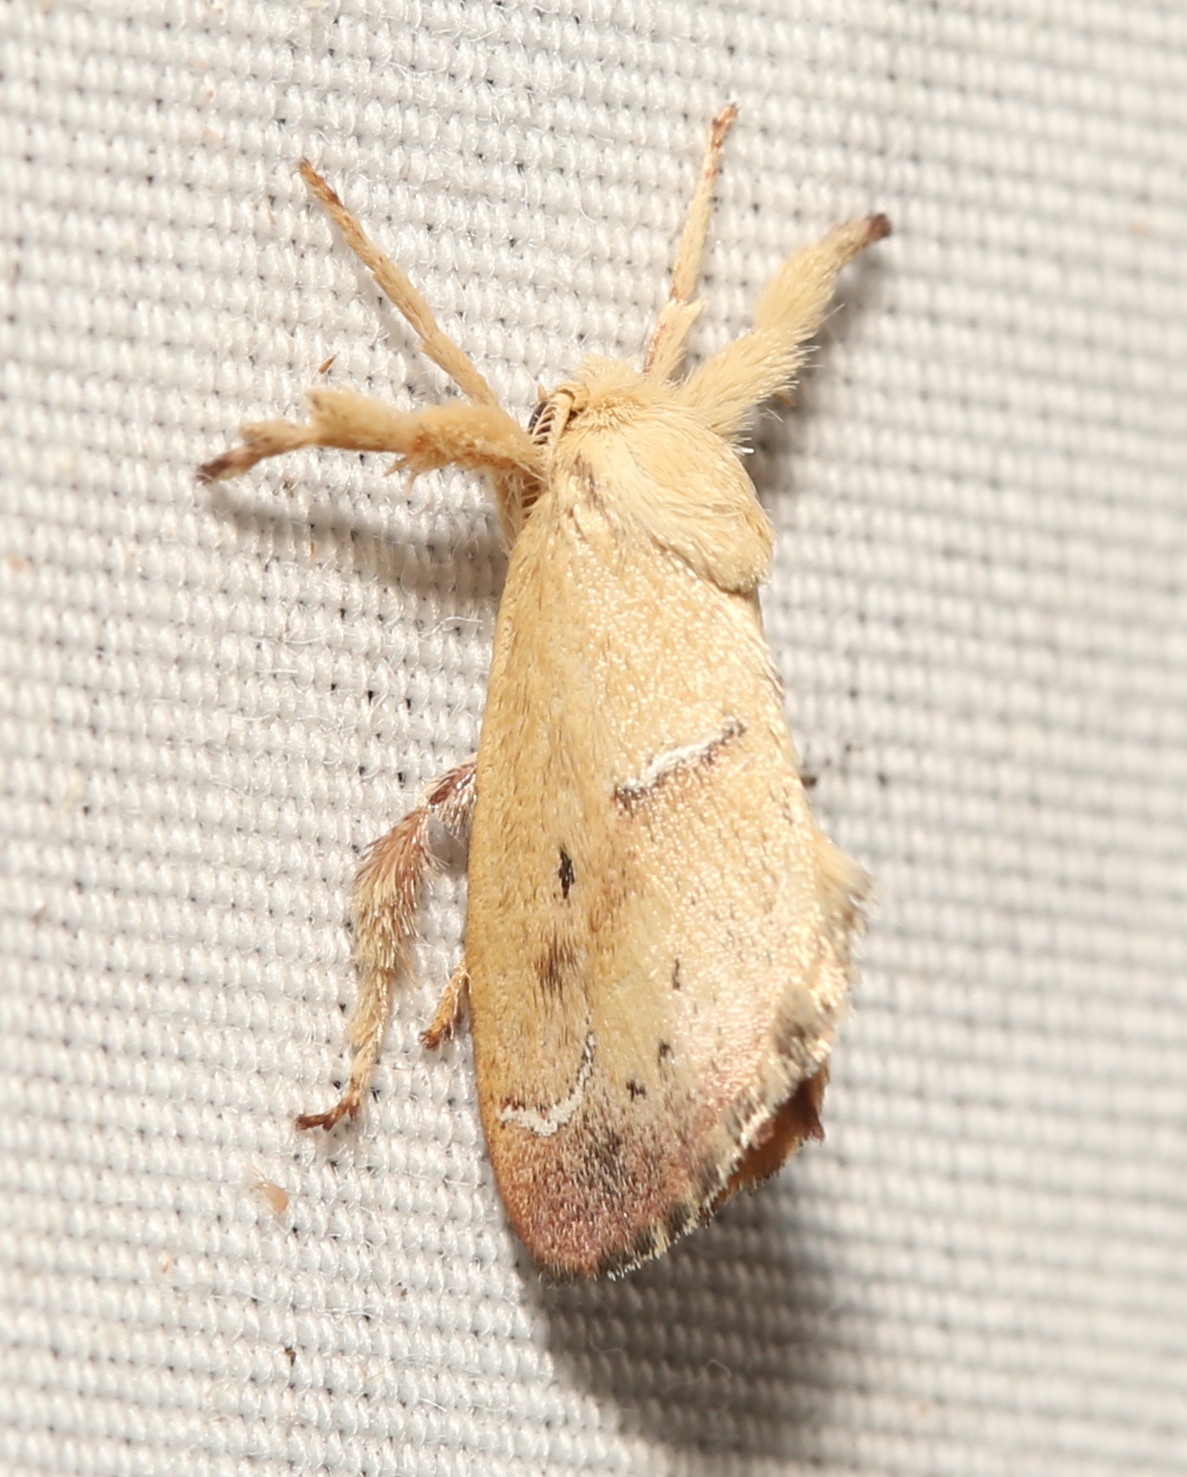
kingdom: Animalia
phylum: Arthropoda
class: Insecta
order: Lepidoptera
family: Limacodidae
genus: Adoneta
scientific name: Adoneta bicaudata
